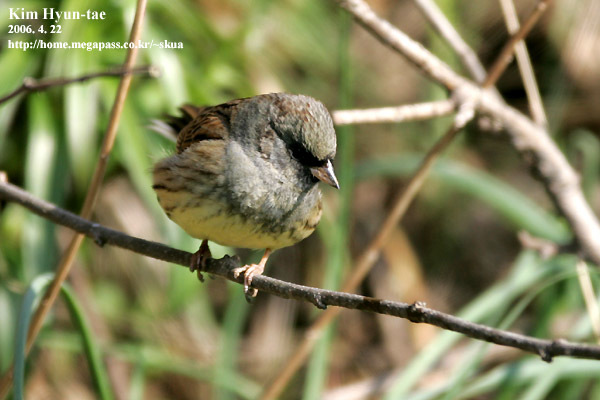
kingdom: Animalia
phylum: Chordata
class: Aves
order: Passeriformes
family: Emberizidae
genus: Emberiza
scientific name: Emberiza spodocephala
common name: Black-faced bunting
